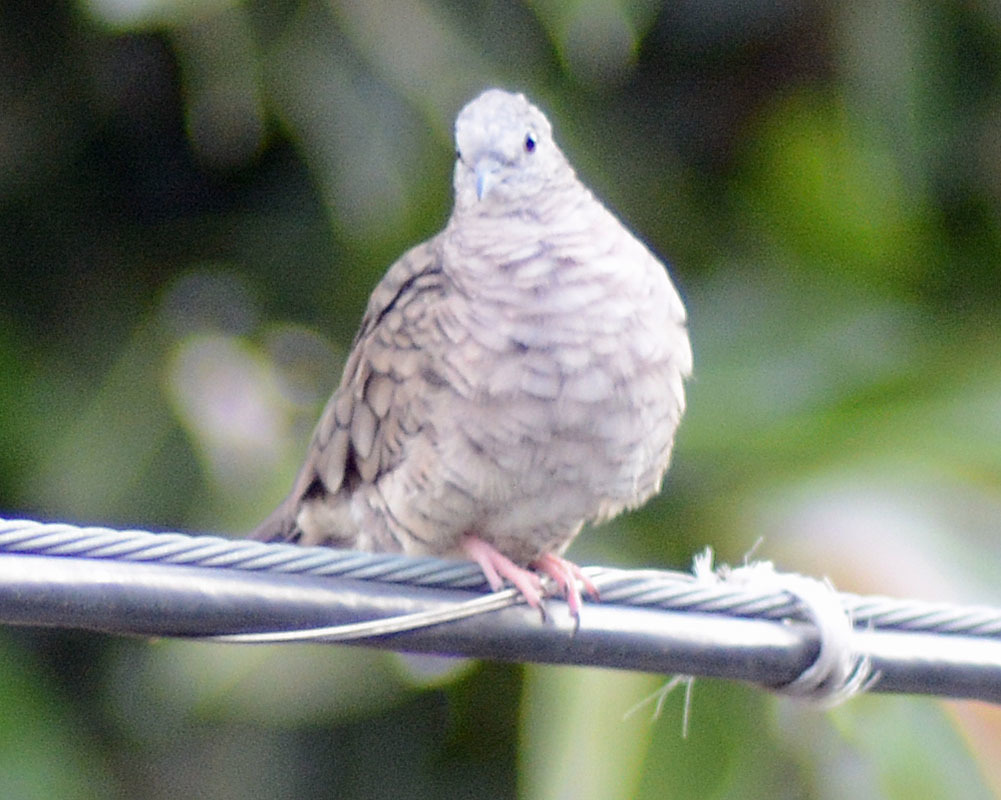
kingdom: Animalia
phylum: Chordata
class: Aves
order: Columbiformes
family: Columbidae
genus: Columbina
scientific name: Columbina inca
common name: Inca dove
